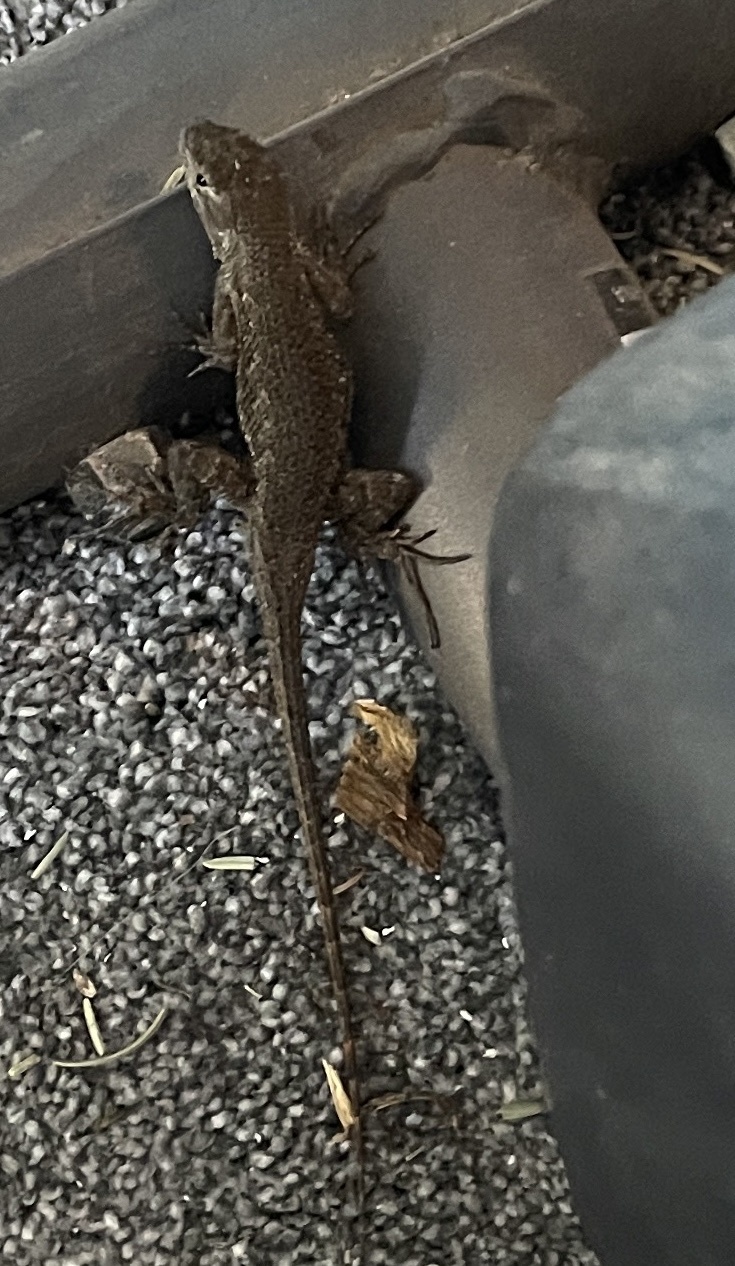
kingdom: Animalia
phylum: Chordata
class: Squamata
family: Phrynosomatidae
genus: Sceloporus
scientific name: Sceloporus occidentalis
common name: Western fence lizard
